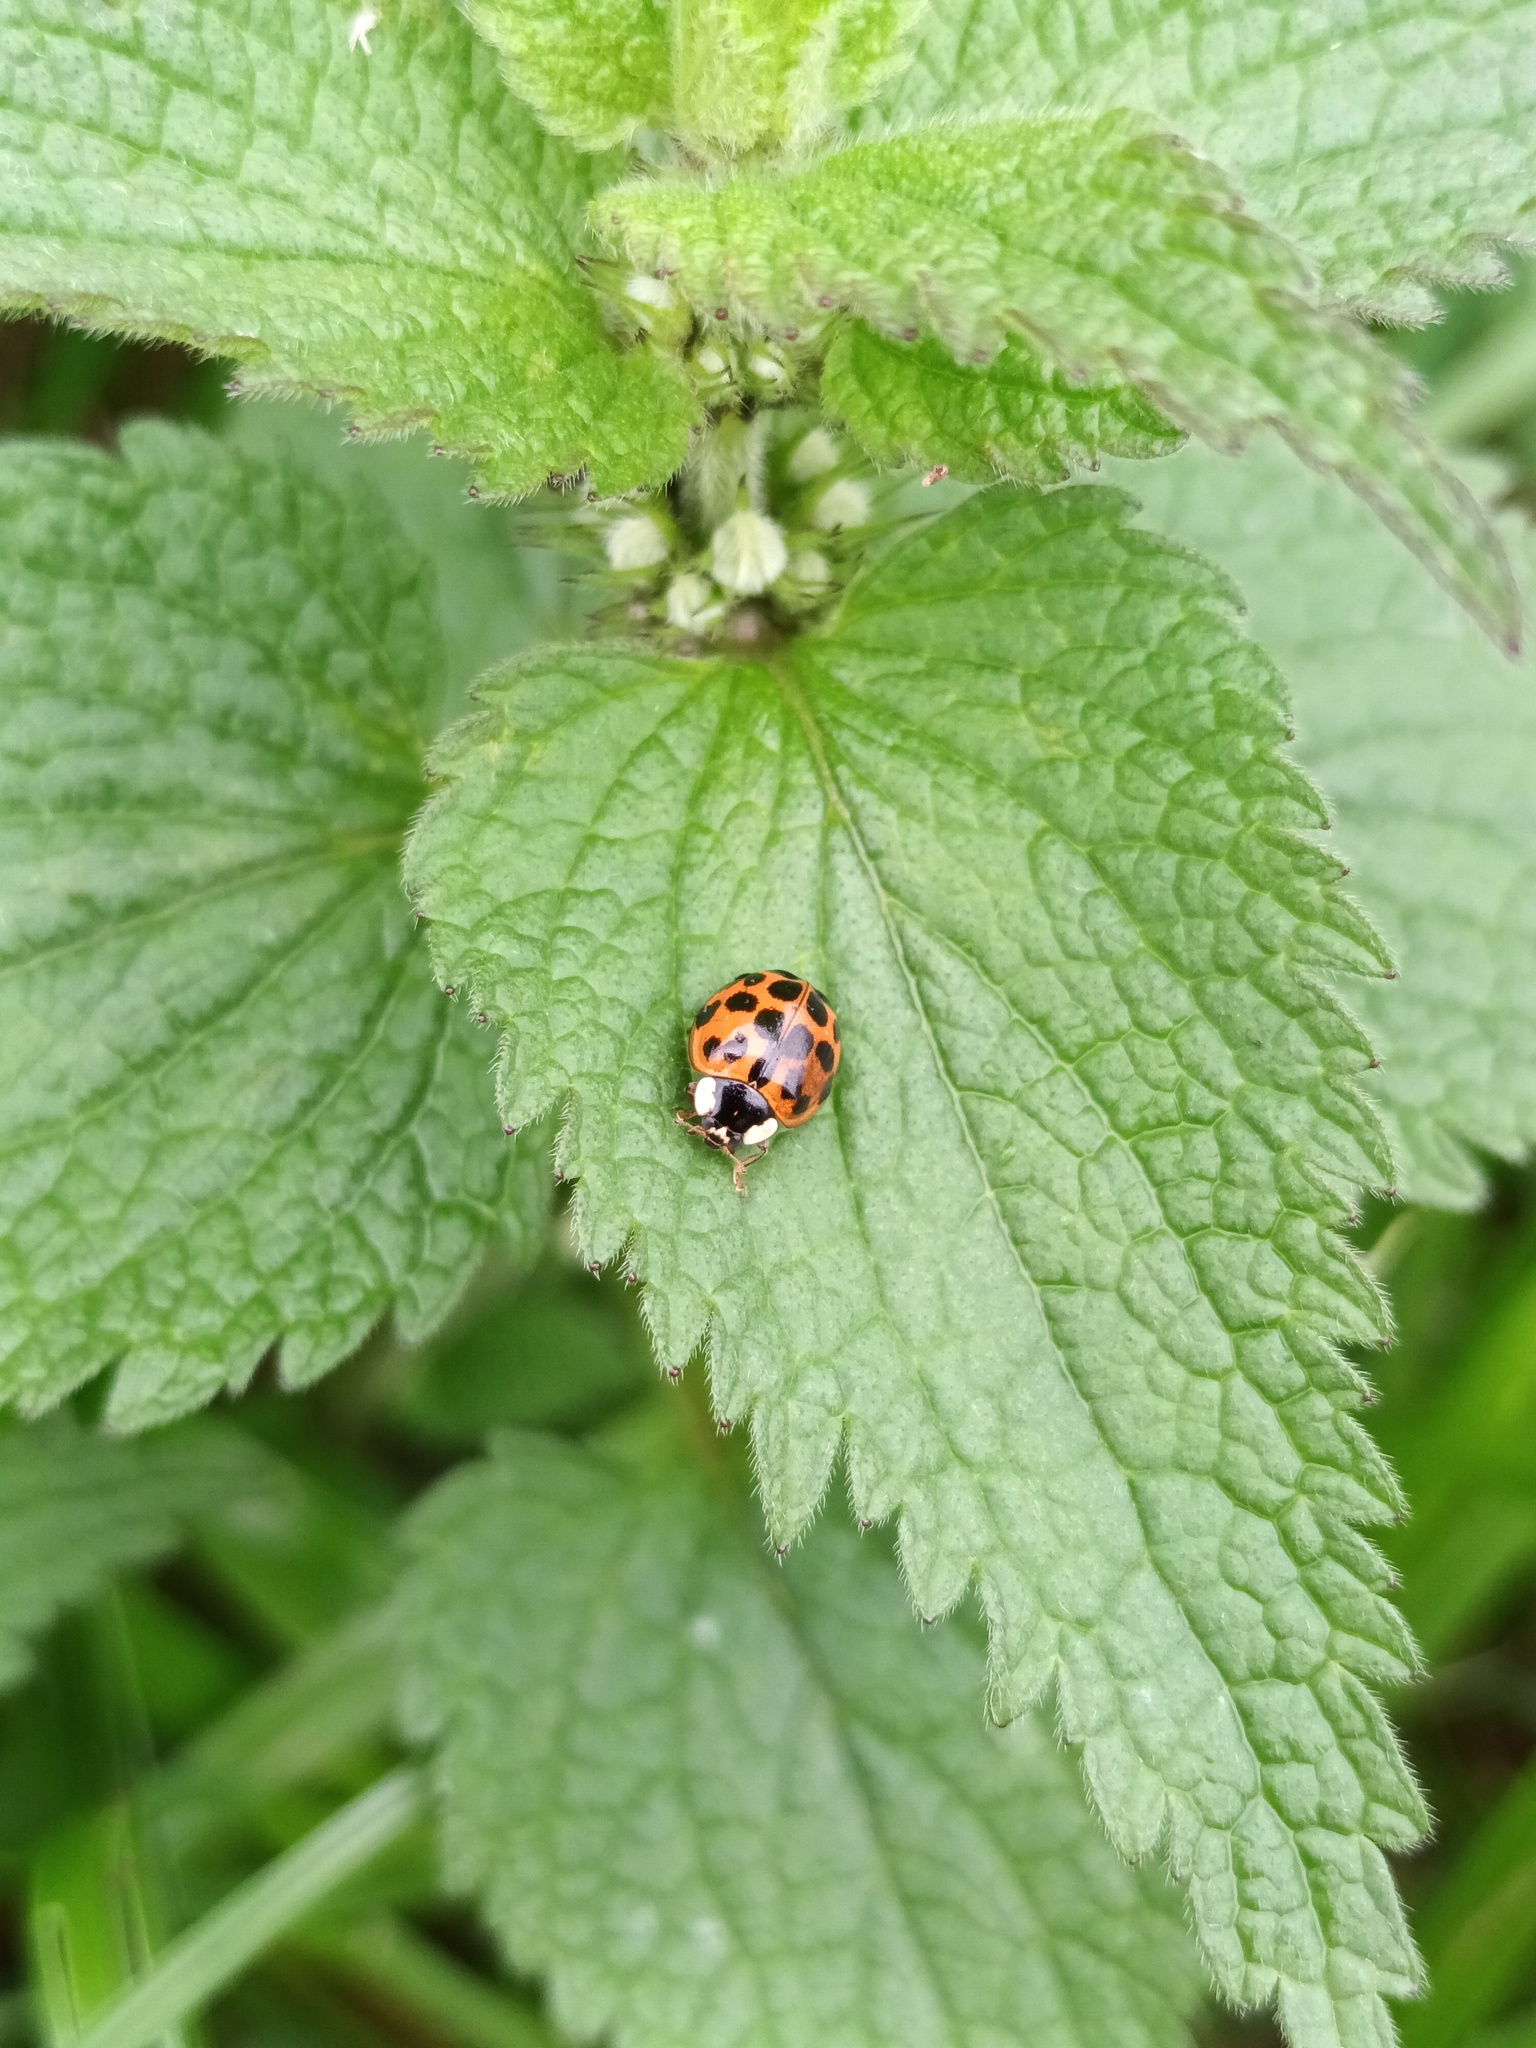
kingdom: Animalia
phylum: Arthropoda
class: Insecta
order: Coleoptera
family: Coccinellidae
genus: Harmonia
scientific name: Harmonia axyridis
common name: Harlequin ladybird
